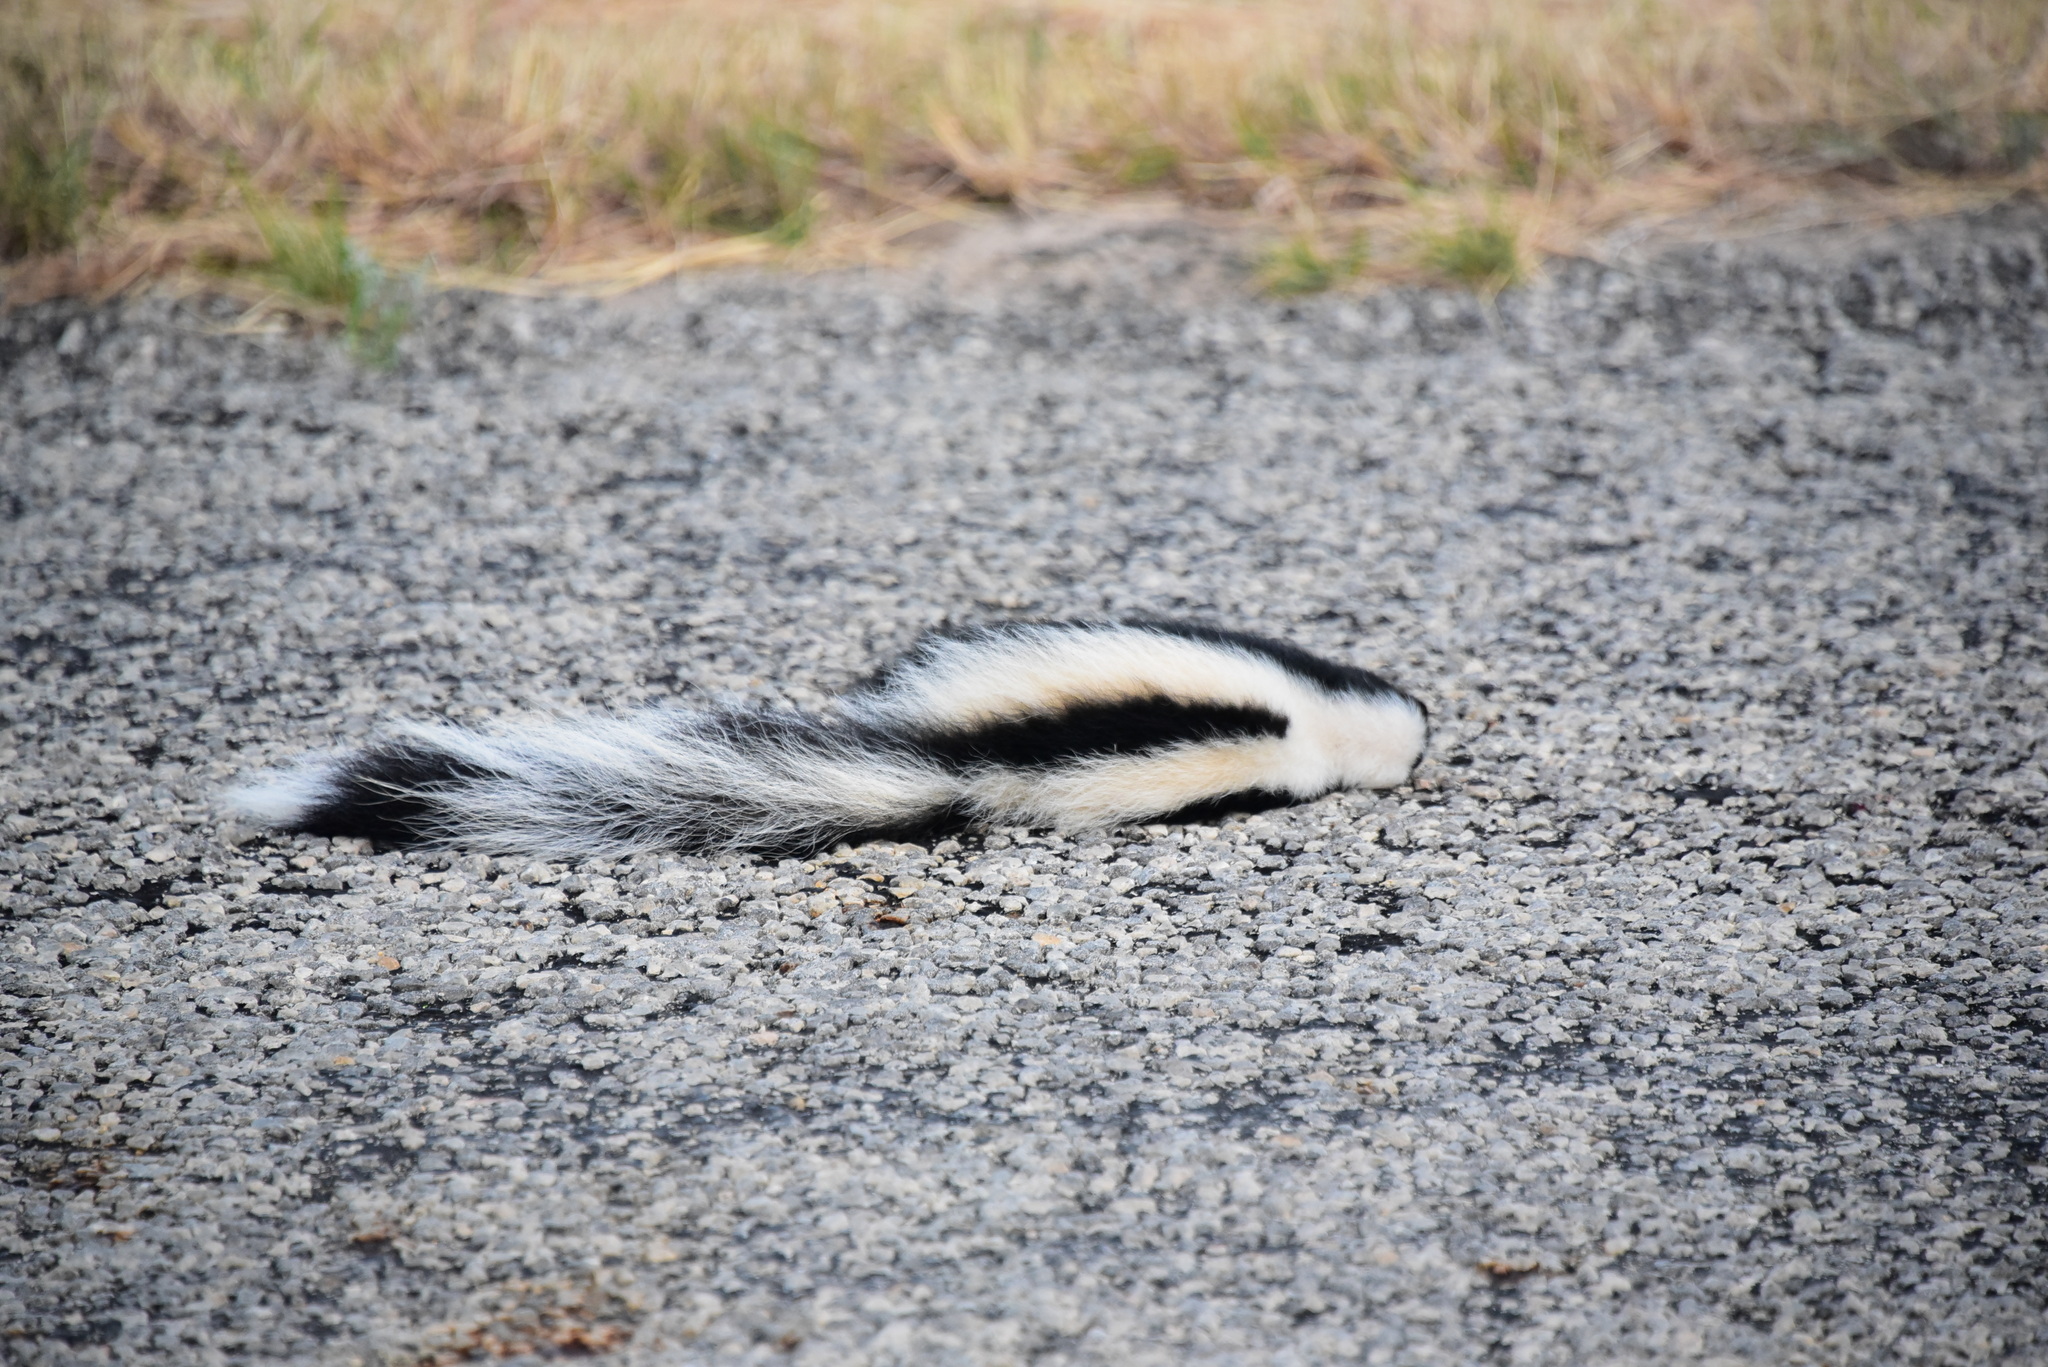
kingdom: Animalia
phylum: Chordata
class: Mammalia
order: Carnivora
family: Mephitidae
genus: Mephitis
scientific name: Mephitis mephitis
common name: Striped skunk
